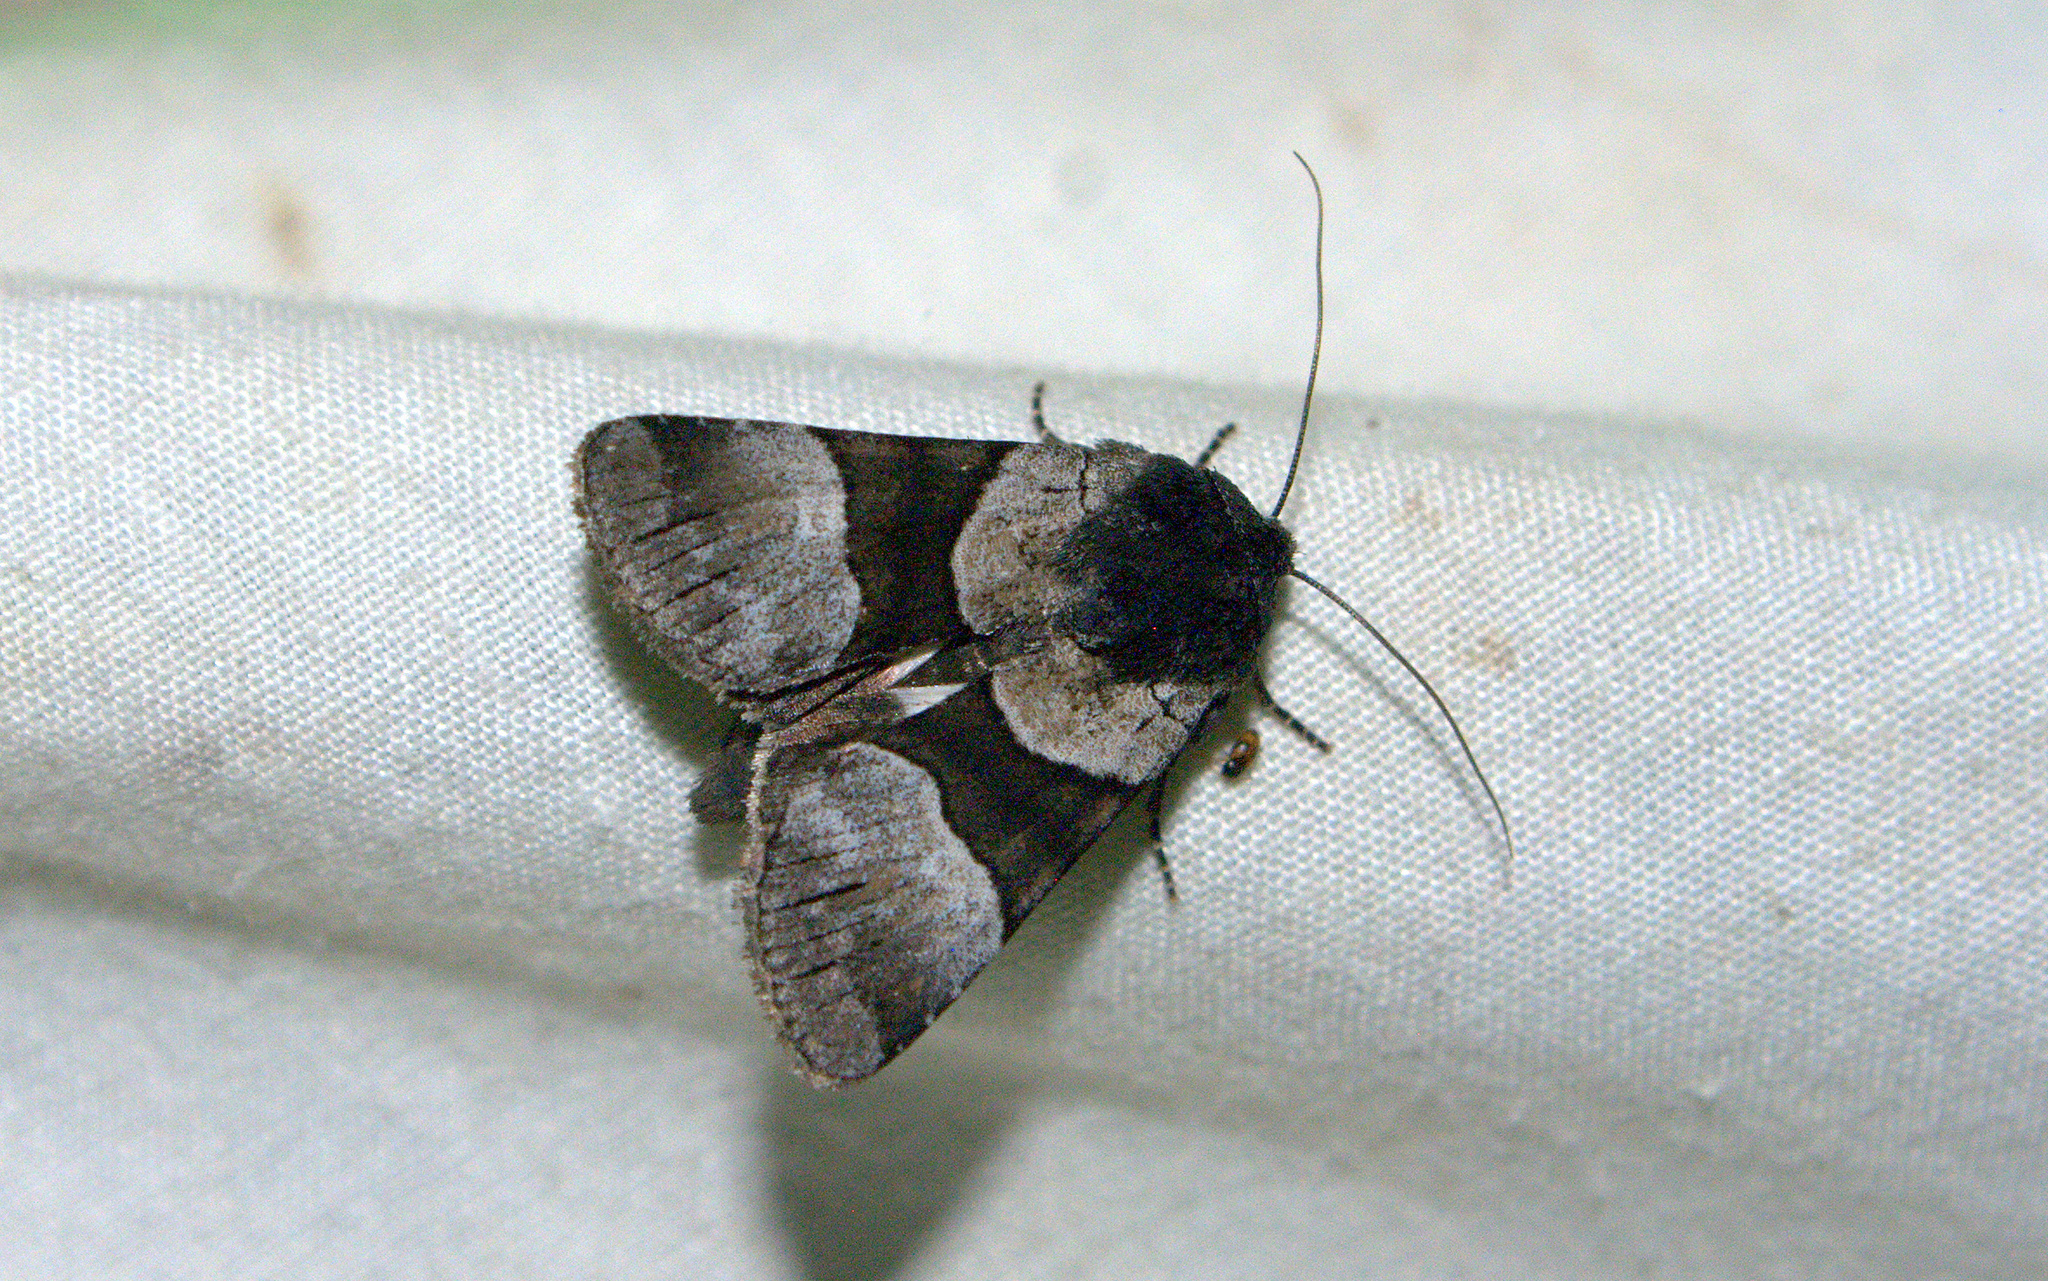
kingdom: Animalia
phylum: Arthropoda
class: Insecta
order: Lepidoptera
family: Noctuidae
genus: Sympistis
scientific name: Sympistis piffardi
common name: Three-striped oncocnemis
